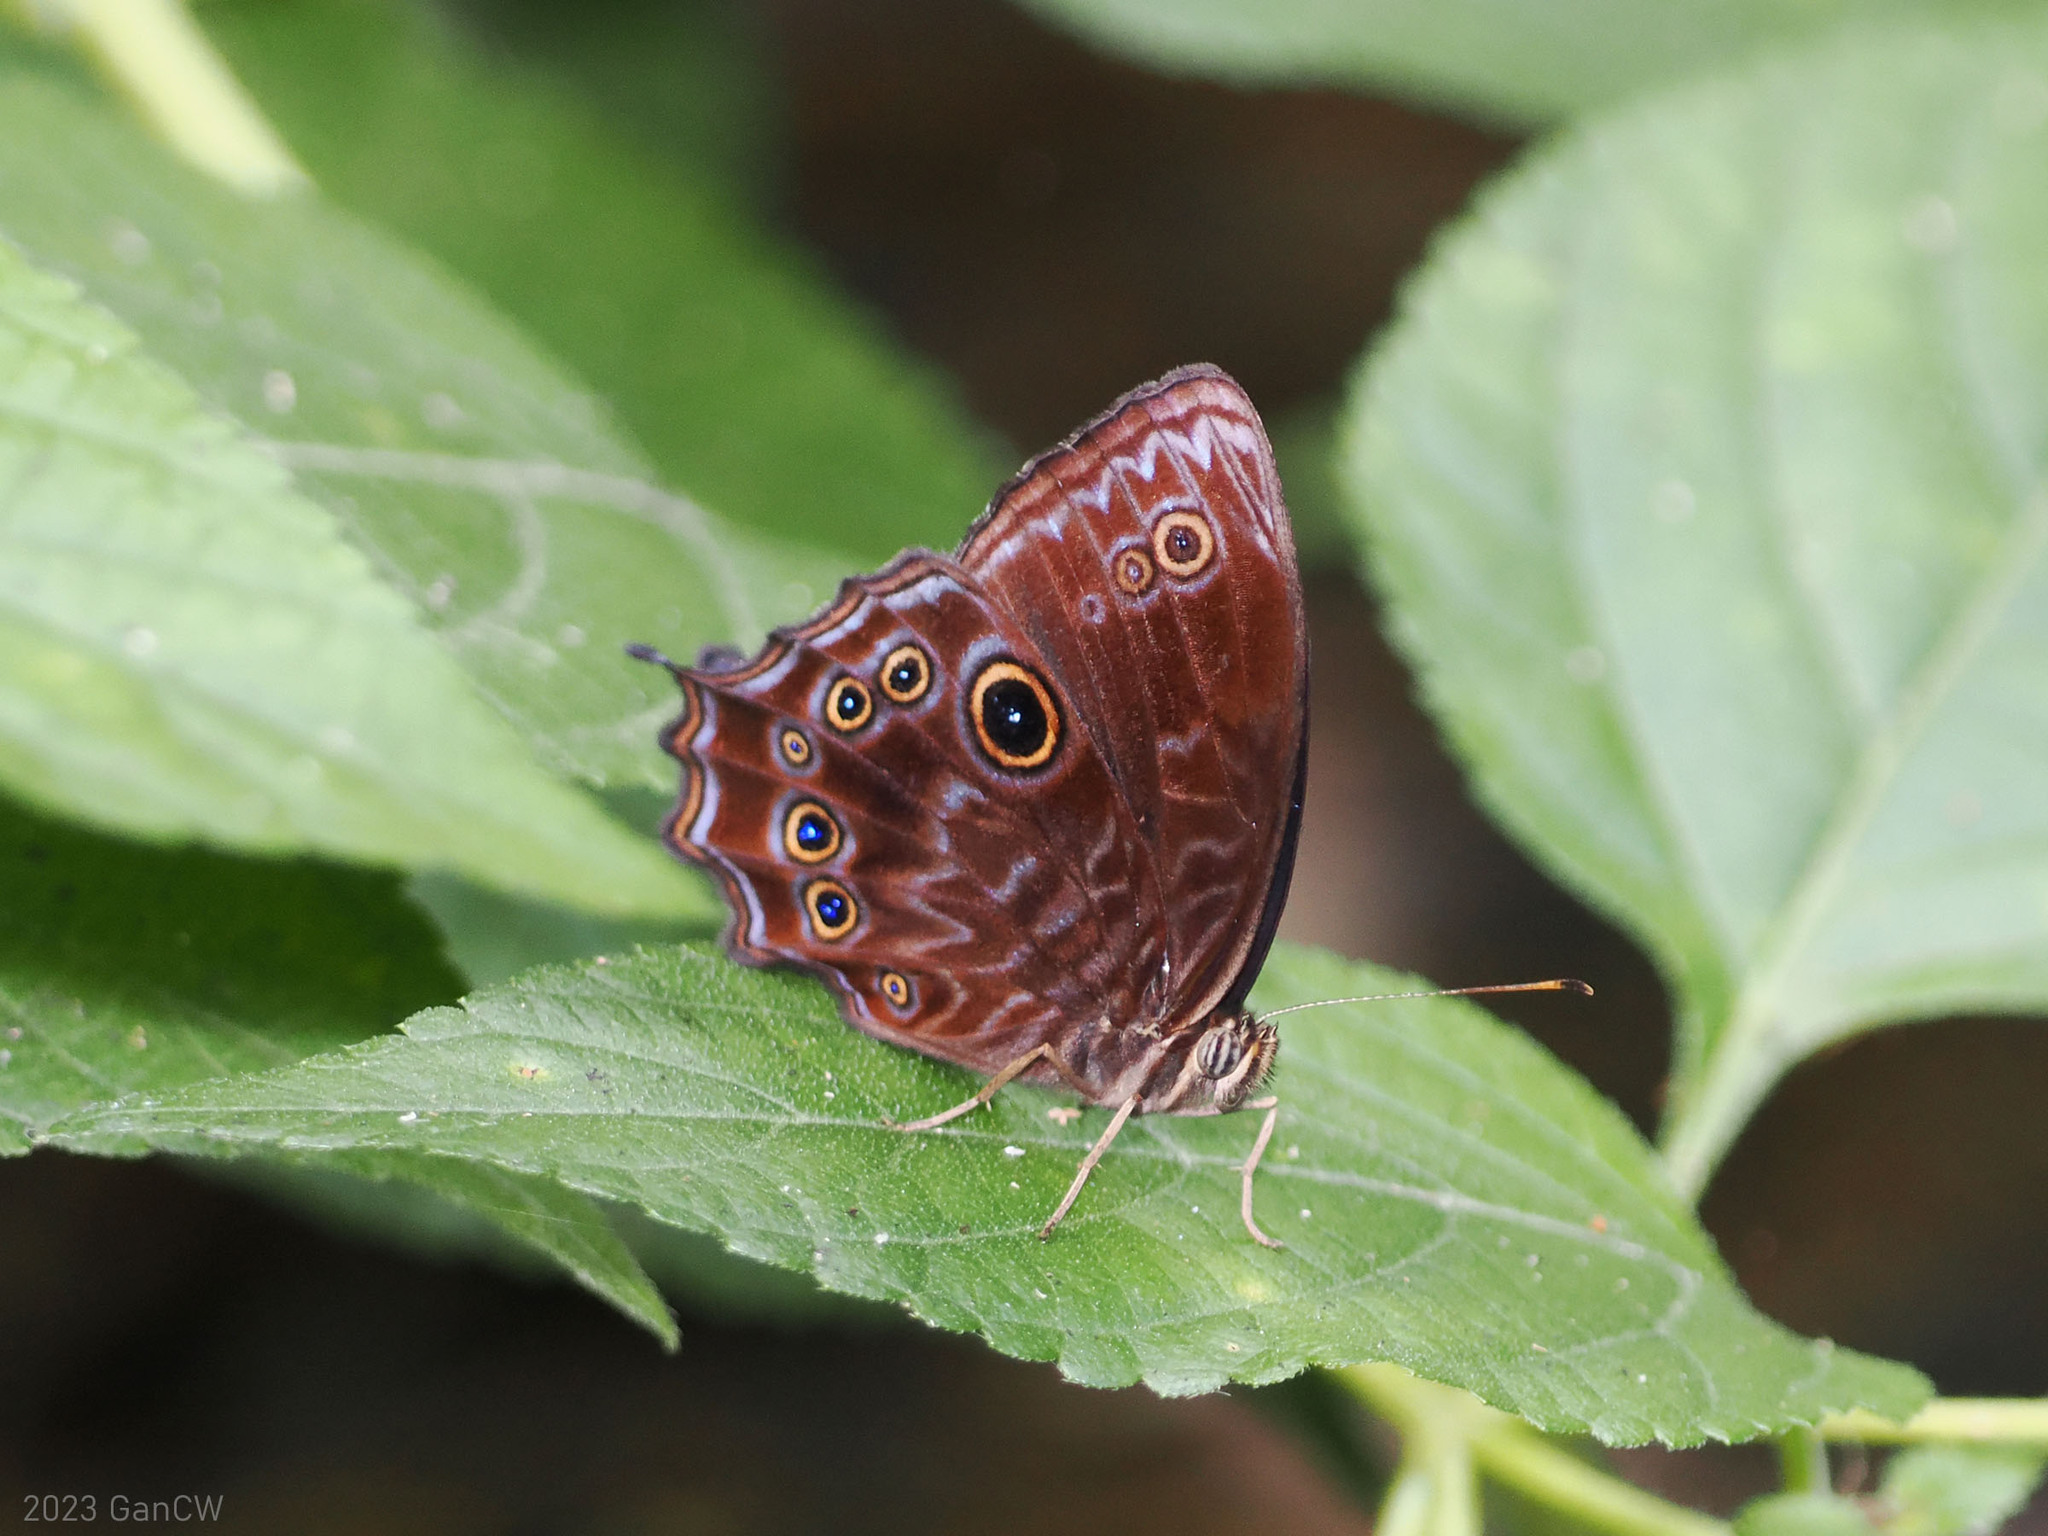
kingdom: Animalia
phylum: Arthropoda
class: Insecta
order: Lepidoptera
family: Nymphalidae
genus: Ptychandra
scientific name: Ptychandra lorquinii
